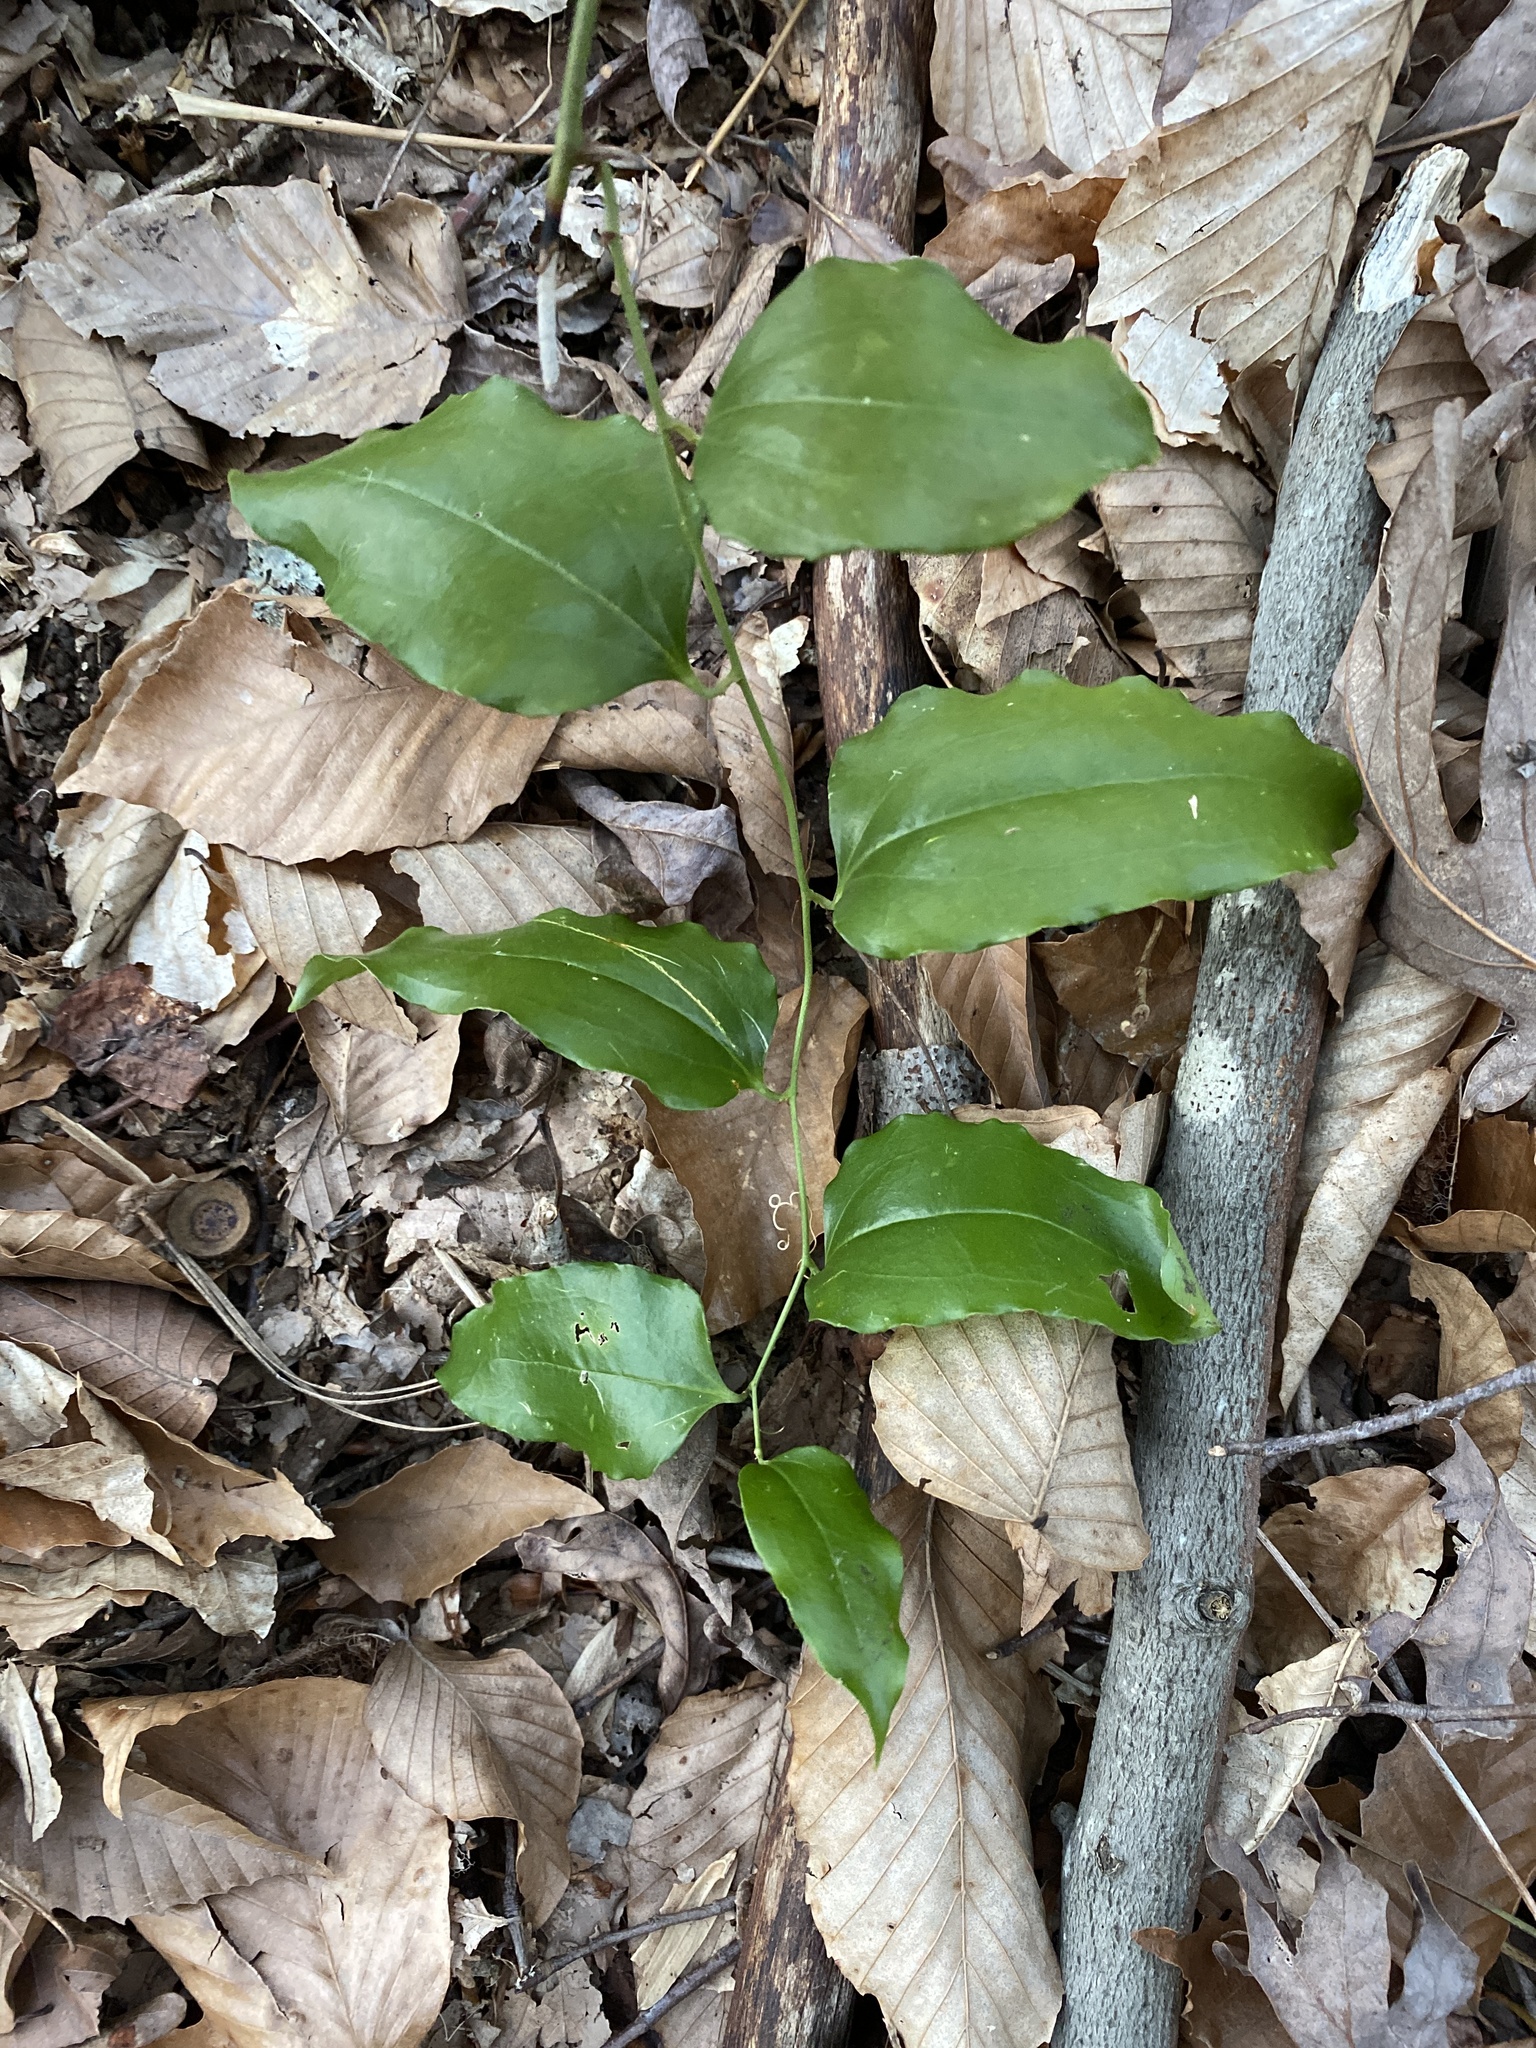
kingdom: Plantae
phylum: Tracheophyta
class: Liliopsida
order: Liliales
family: Smilacaceae
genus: Smilax
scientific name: Smilax maritima
